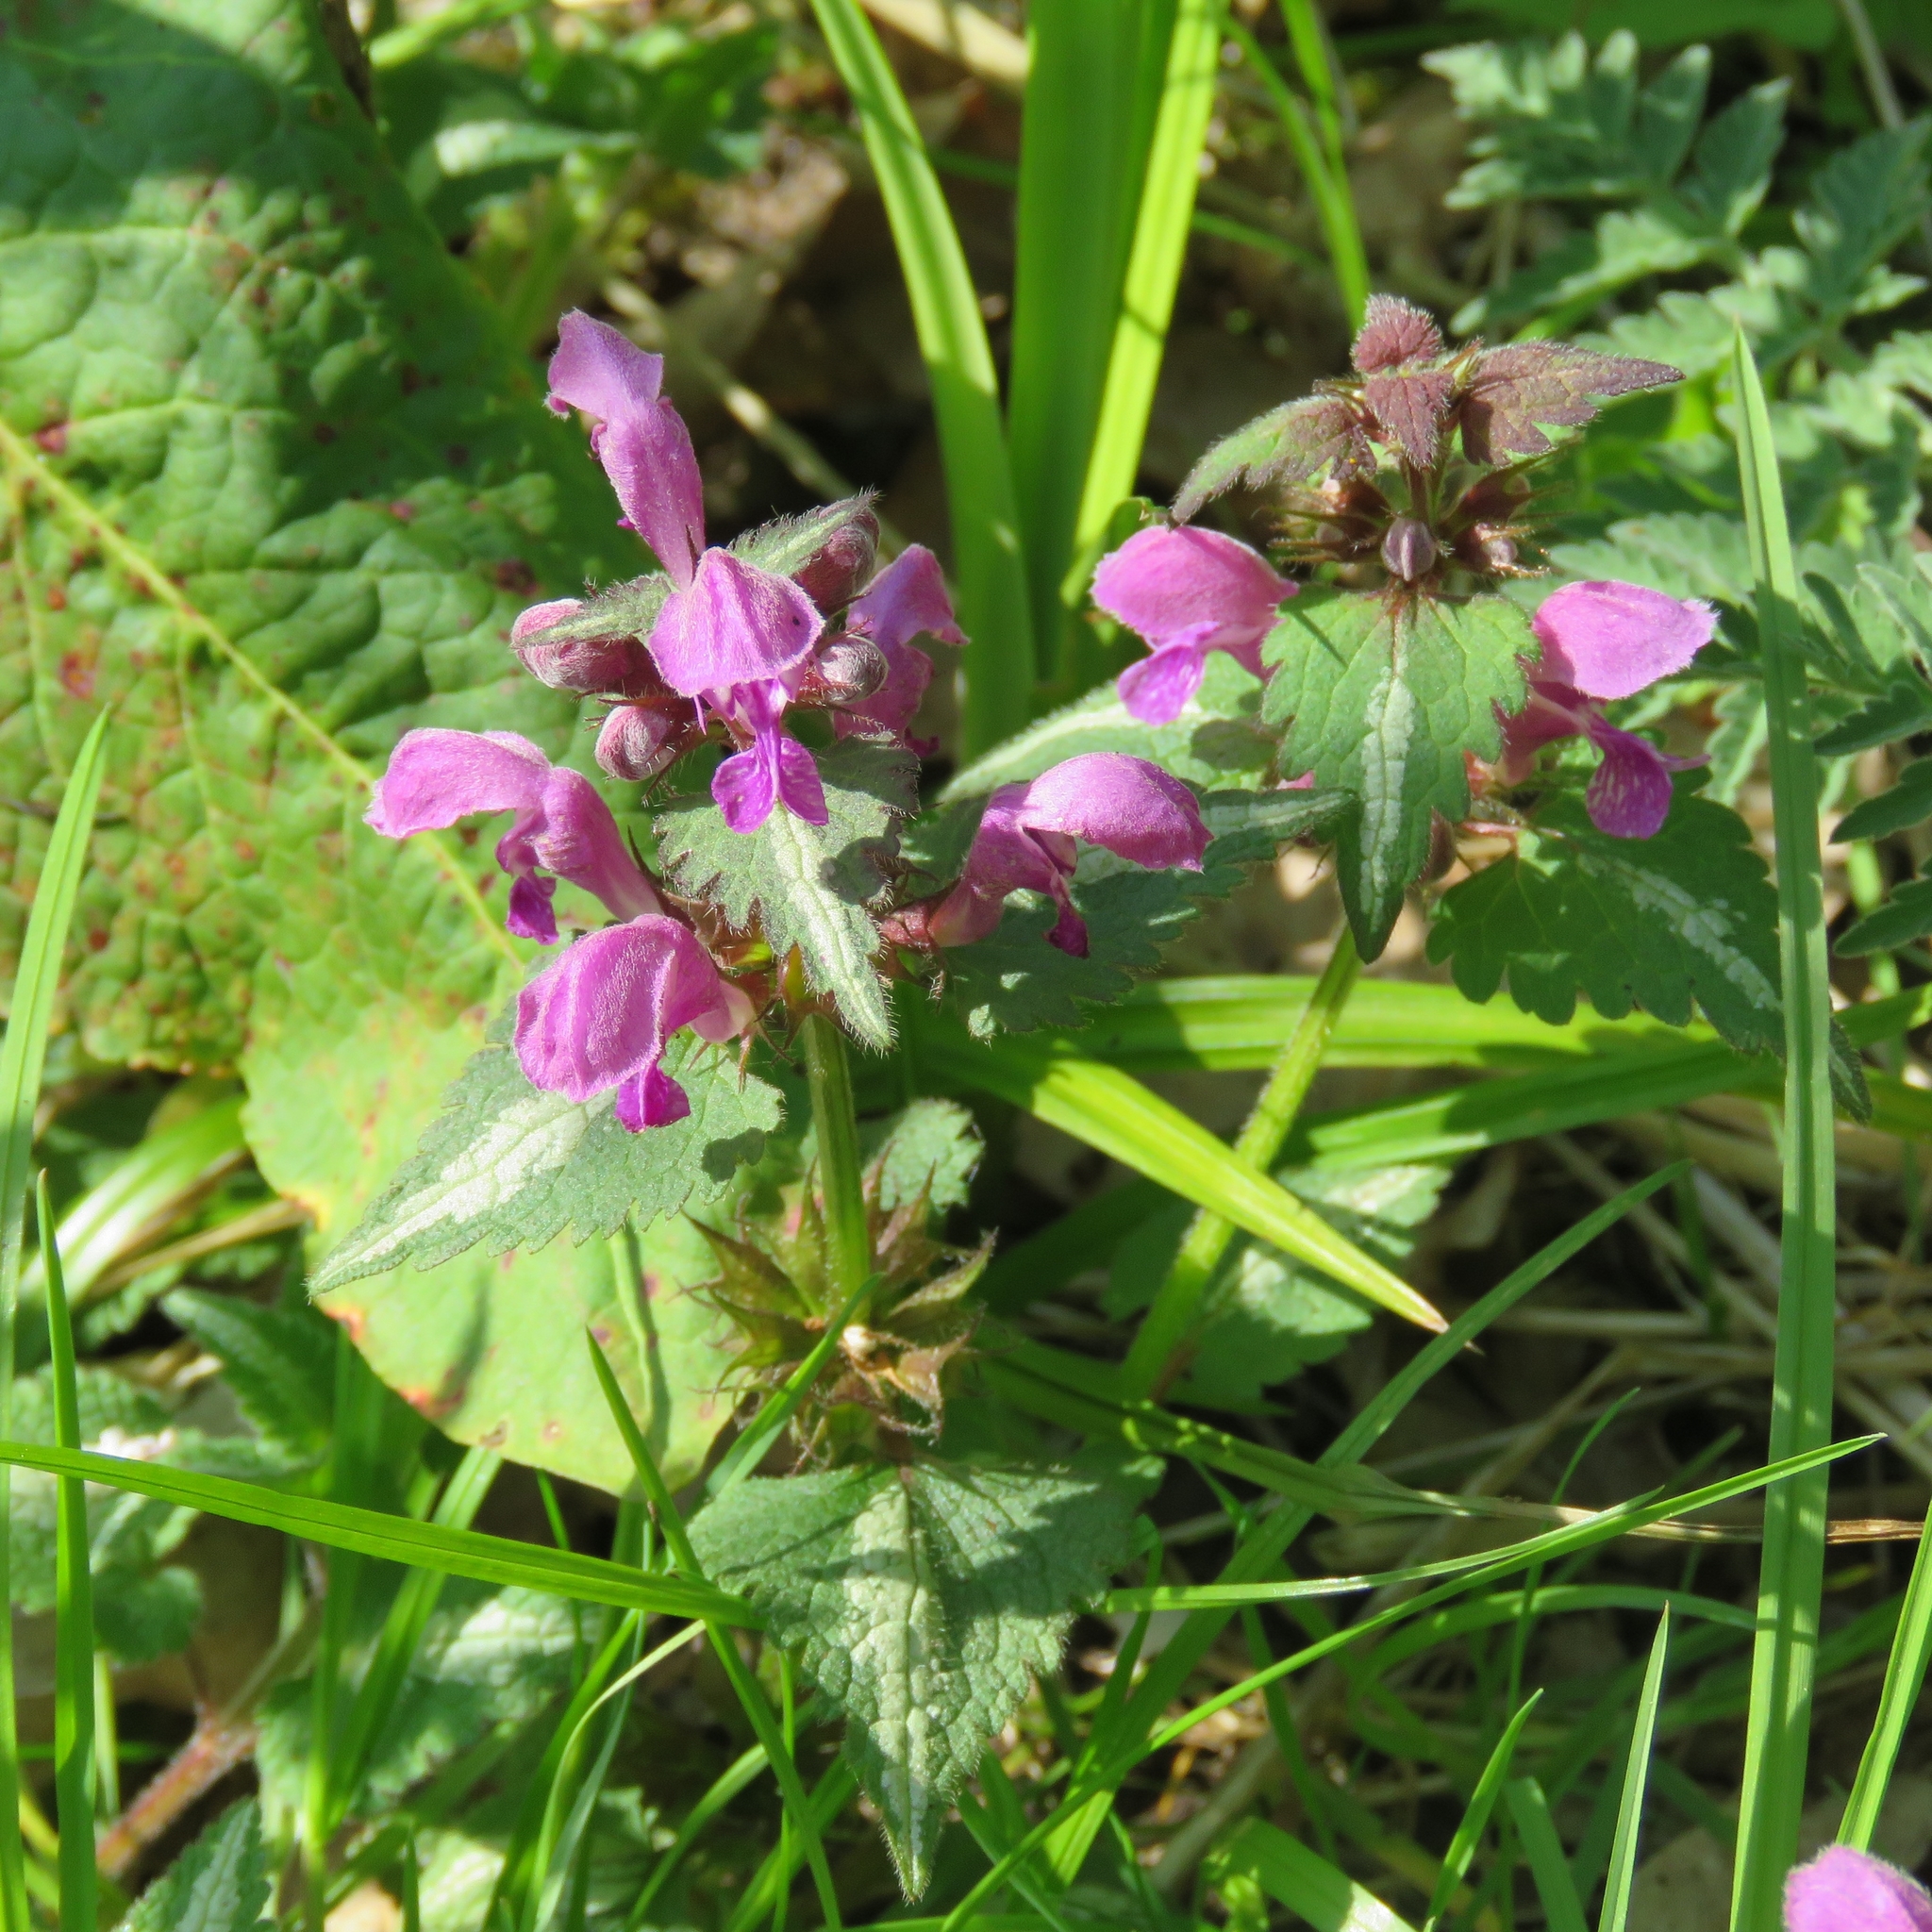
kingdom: Plantae
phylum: Tracheophyta
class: Magnoliopsida
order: Lamiales
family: Lamiaceae
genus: Lamium
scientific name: Lamium maculatum
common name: Spotted dead-nettle
